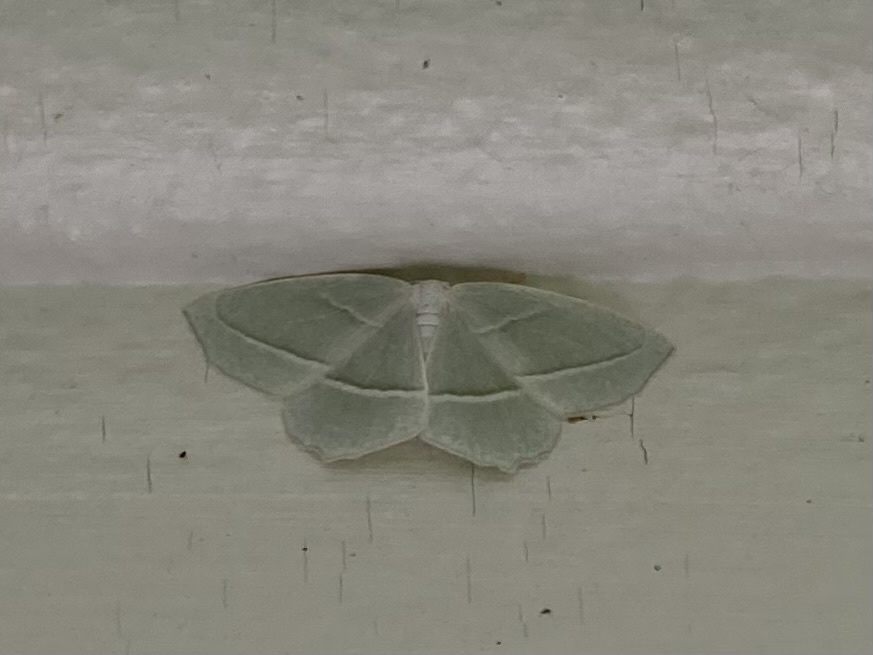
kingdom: Animalia
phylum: Arthropoda
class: Insecta
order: Lepidoptera
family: Geometridae
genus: Campaea
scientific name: Campaea perlata
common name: Fringed looper
